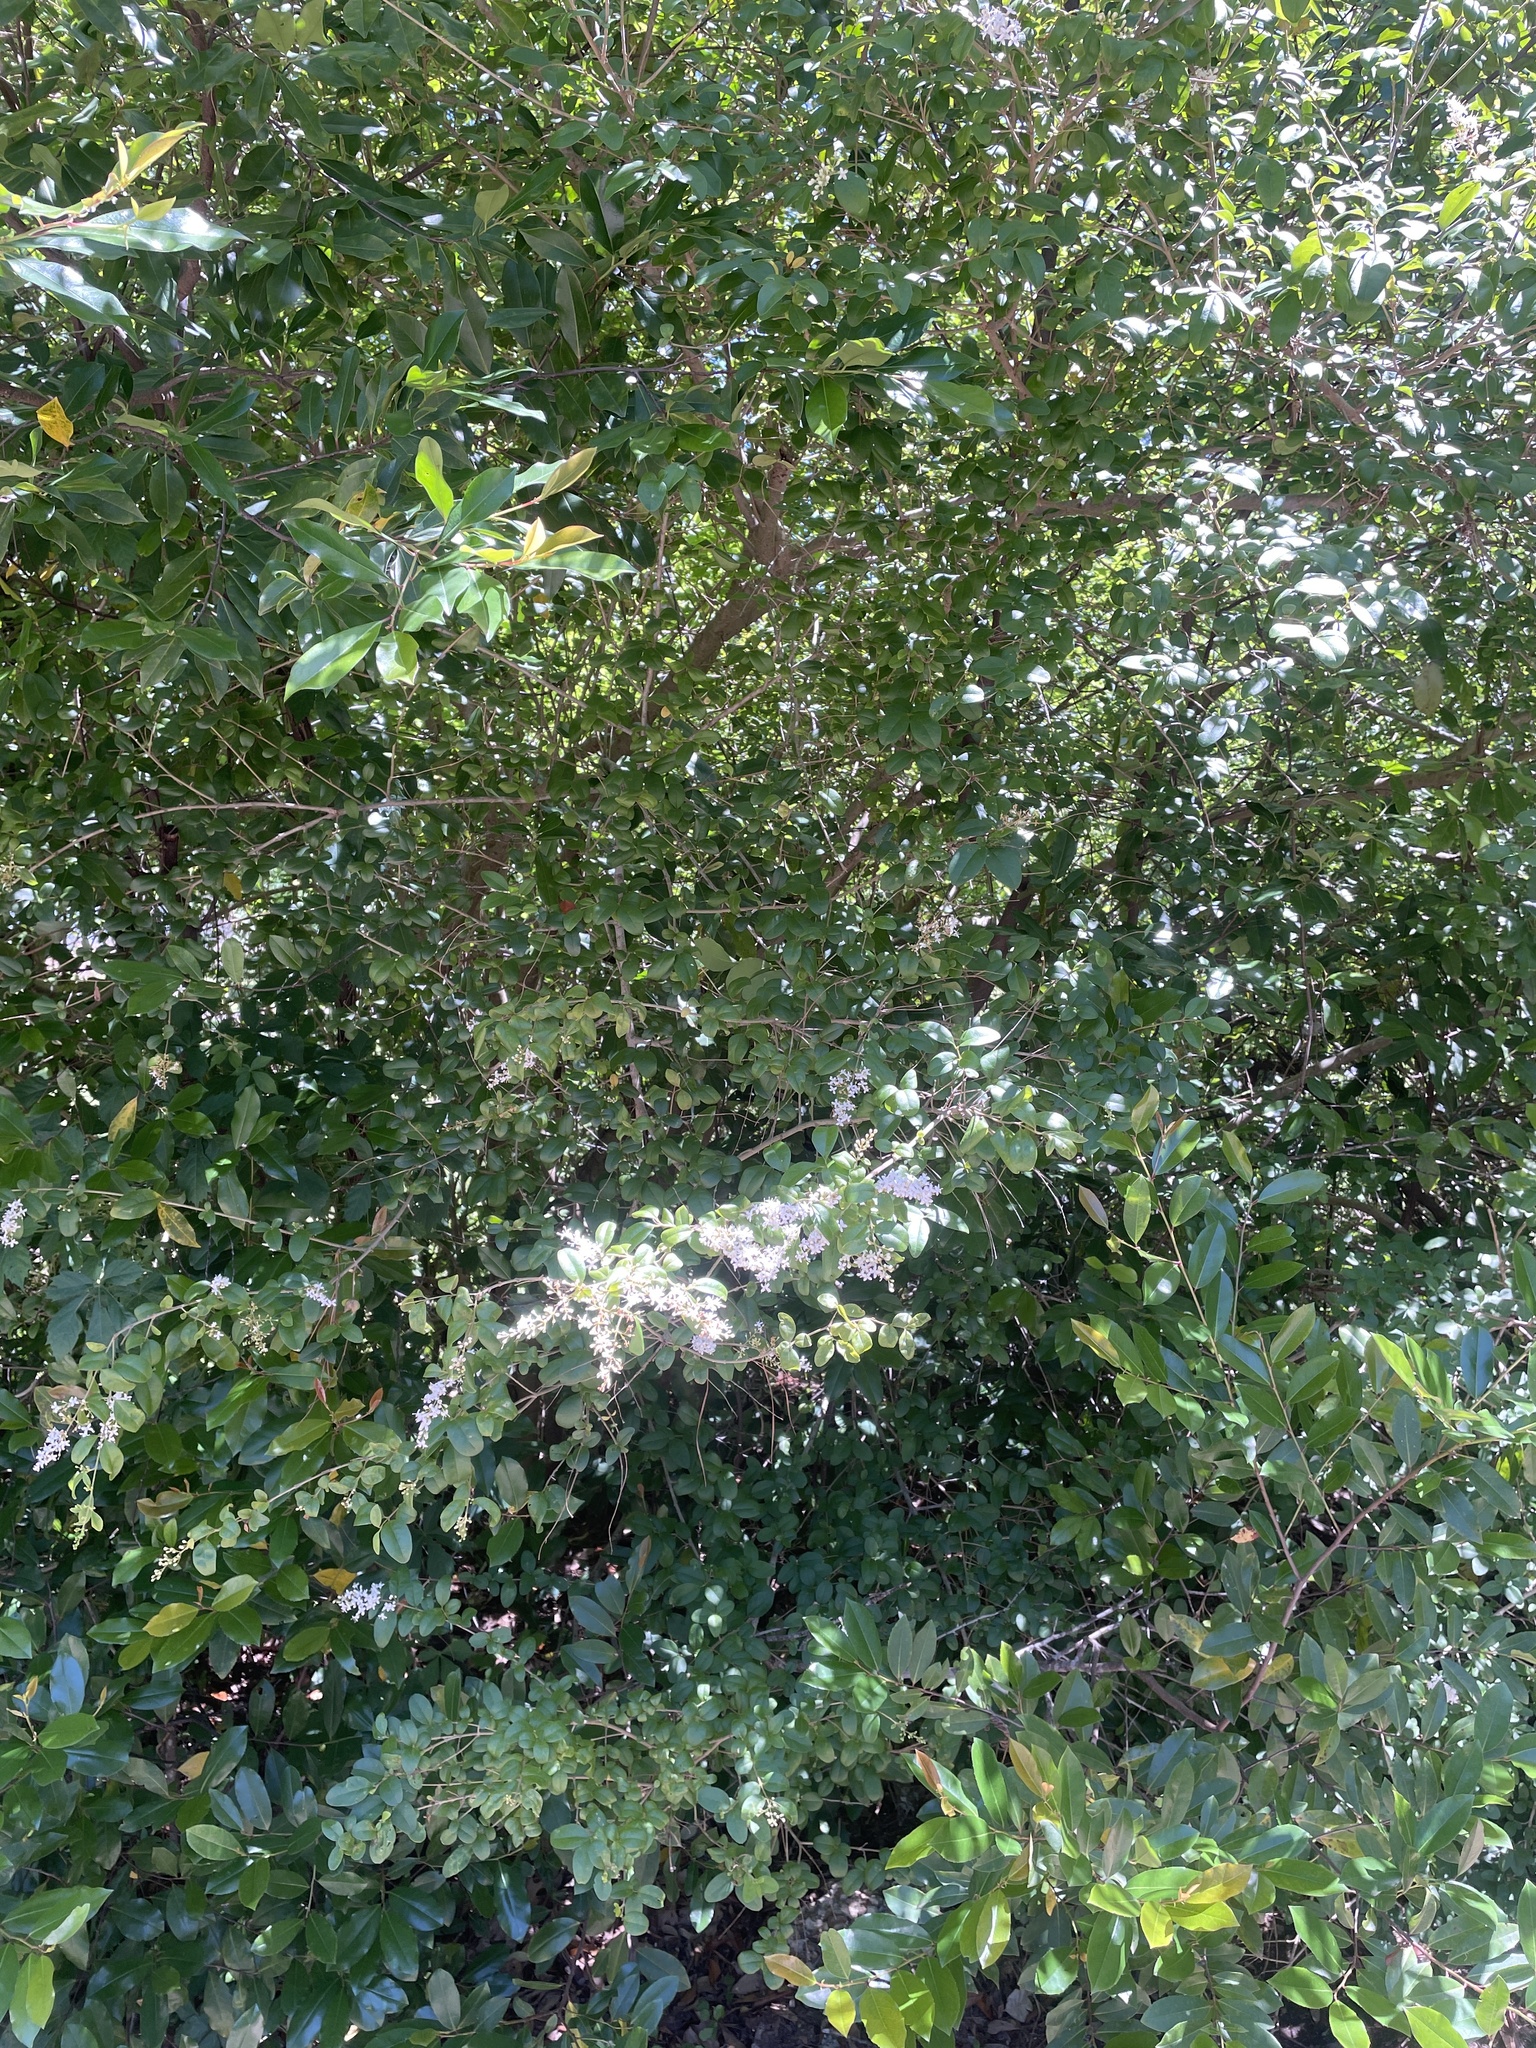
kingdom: Plantae
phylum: Tracheophyta
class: Magnoliopsida
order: Lamiales
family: Oleaceae
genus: Ligustrum
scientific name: Ligustrum sinense
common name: Chinese privet
